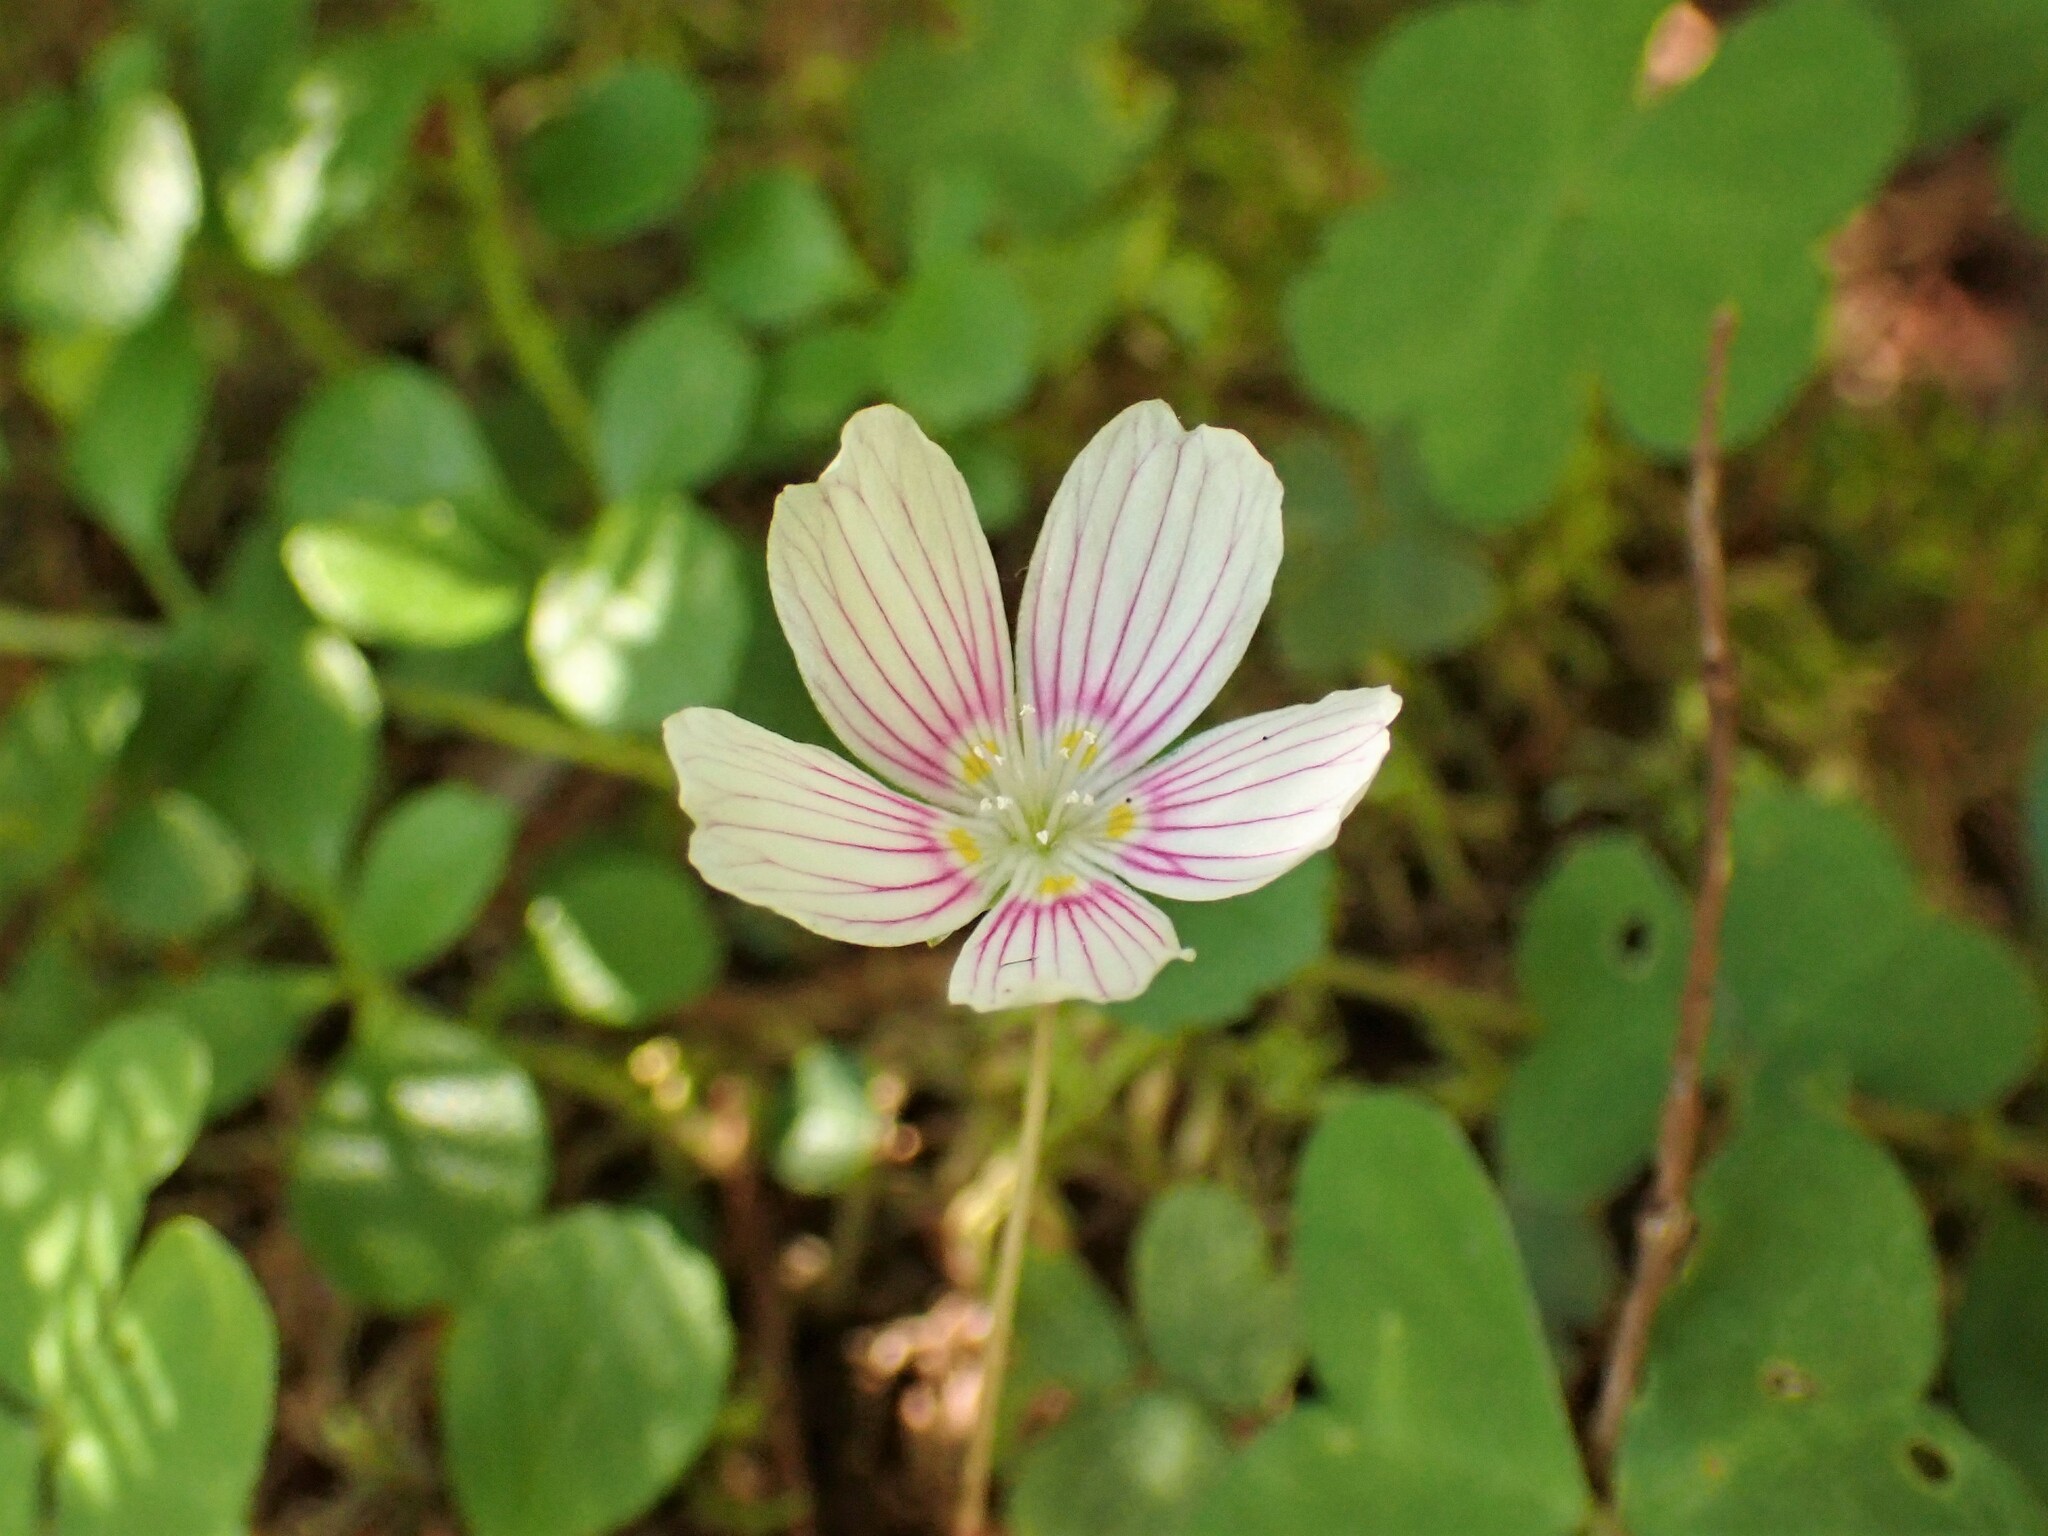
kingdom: Plantae
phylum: Tracheophyta
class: Magnoliopsida
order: Oxalidales
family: Oxalidaceae
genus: Oxalis
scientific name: Oxalis montana
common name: American wood-sorrel
